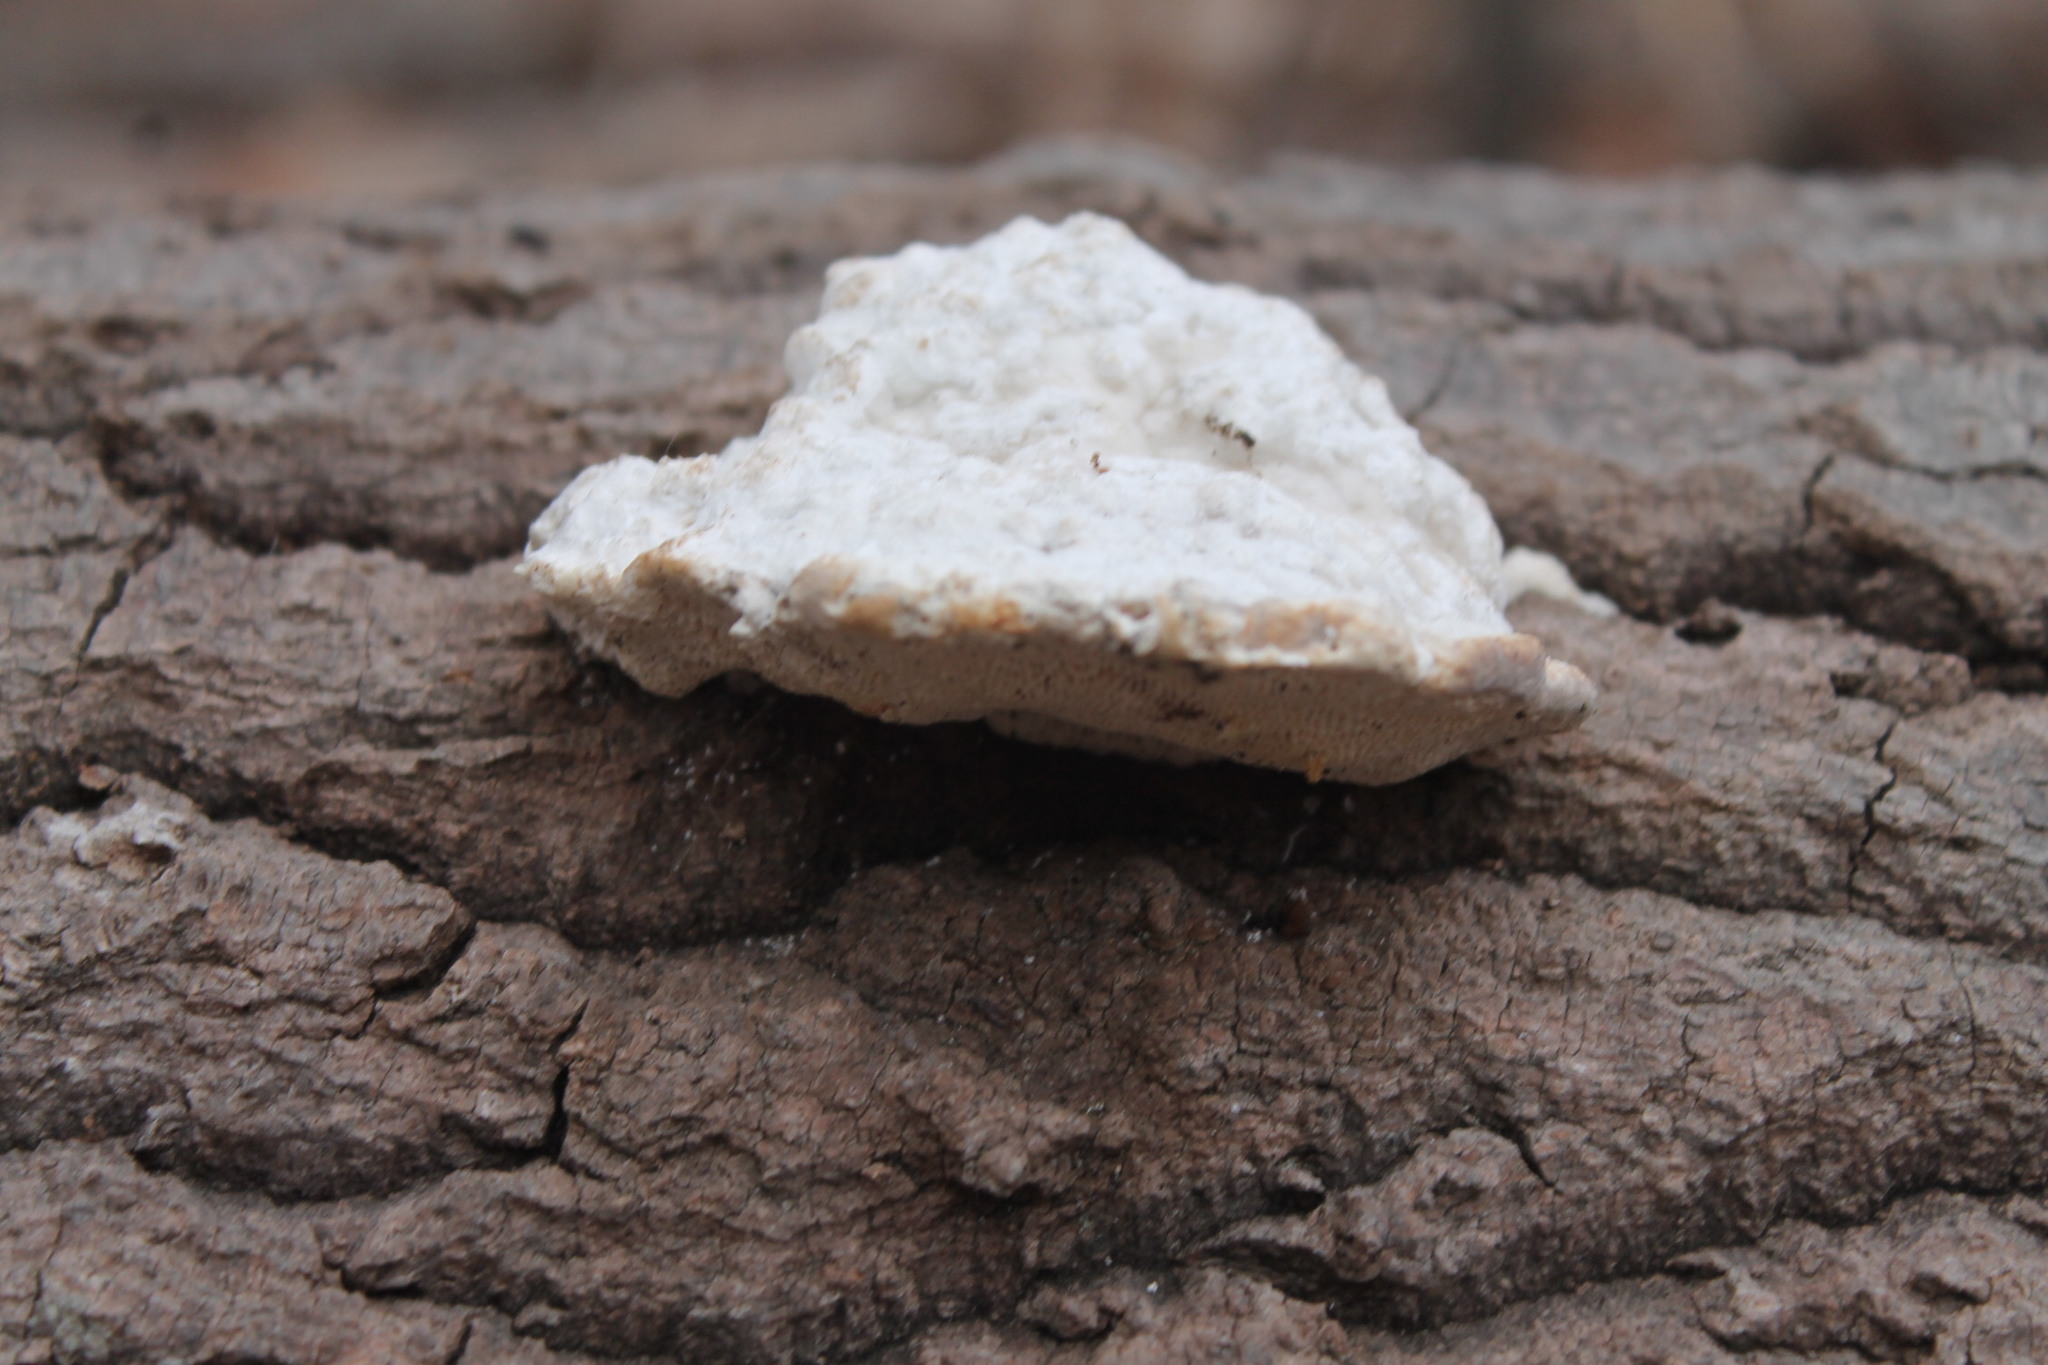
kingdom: Fungi
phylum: Basidiomycota
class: Agaricomycetes
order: Polyporales
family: Polyporaceae
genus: Trametes
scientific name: Trametes gibbosa
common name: Lumpy bracket
